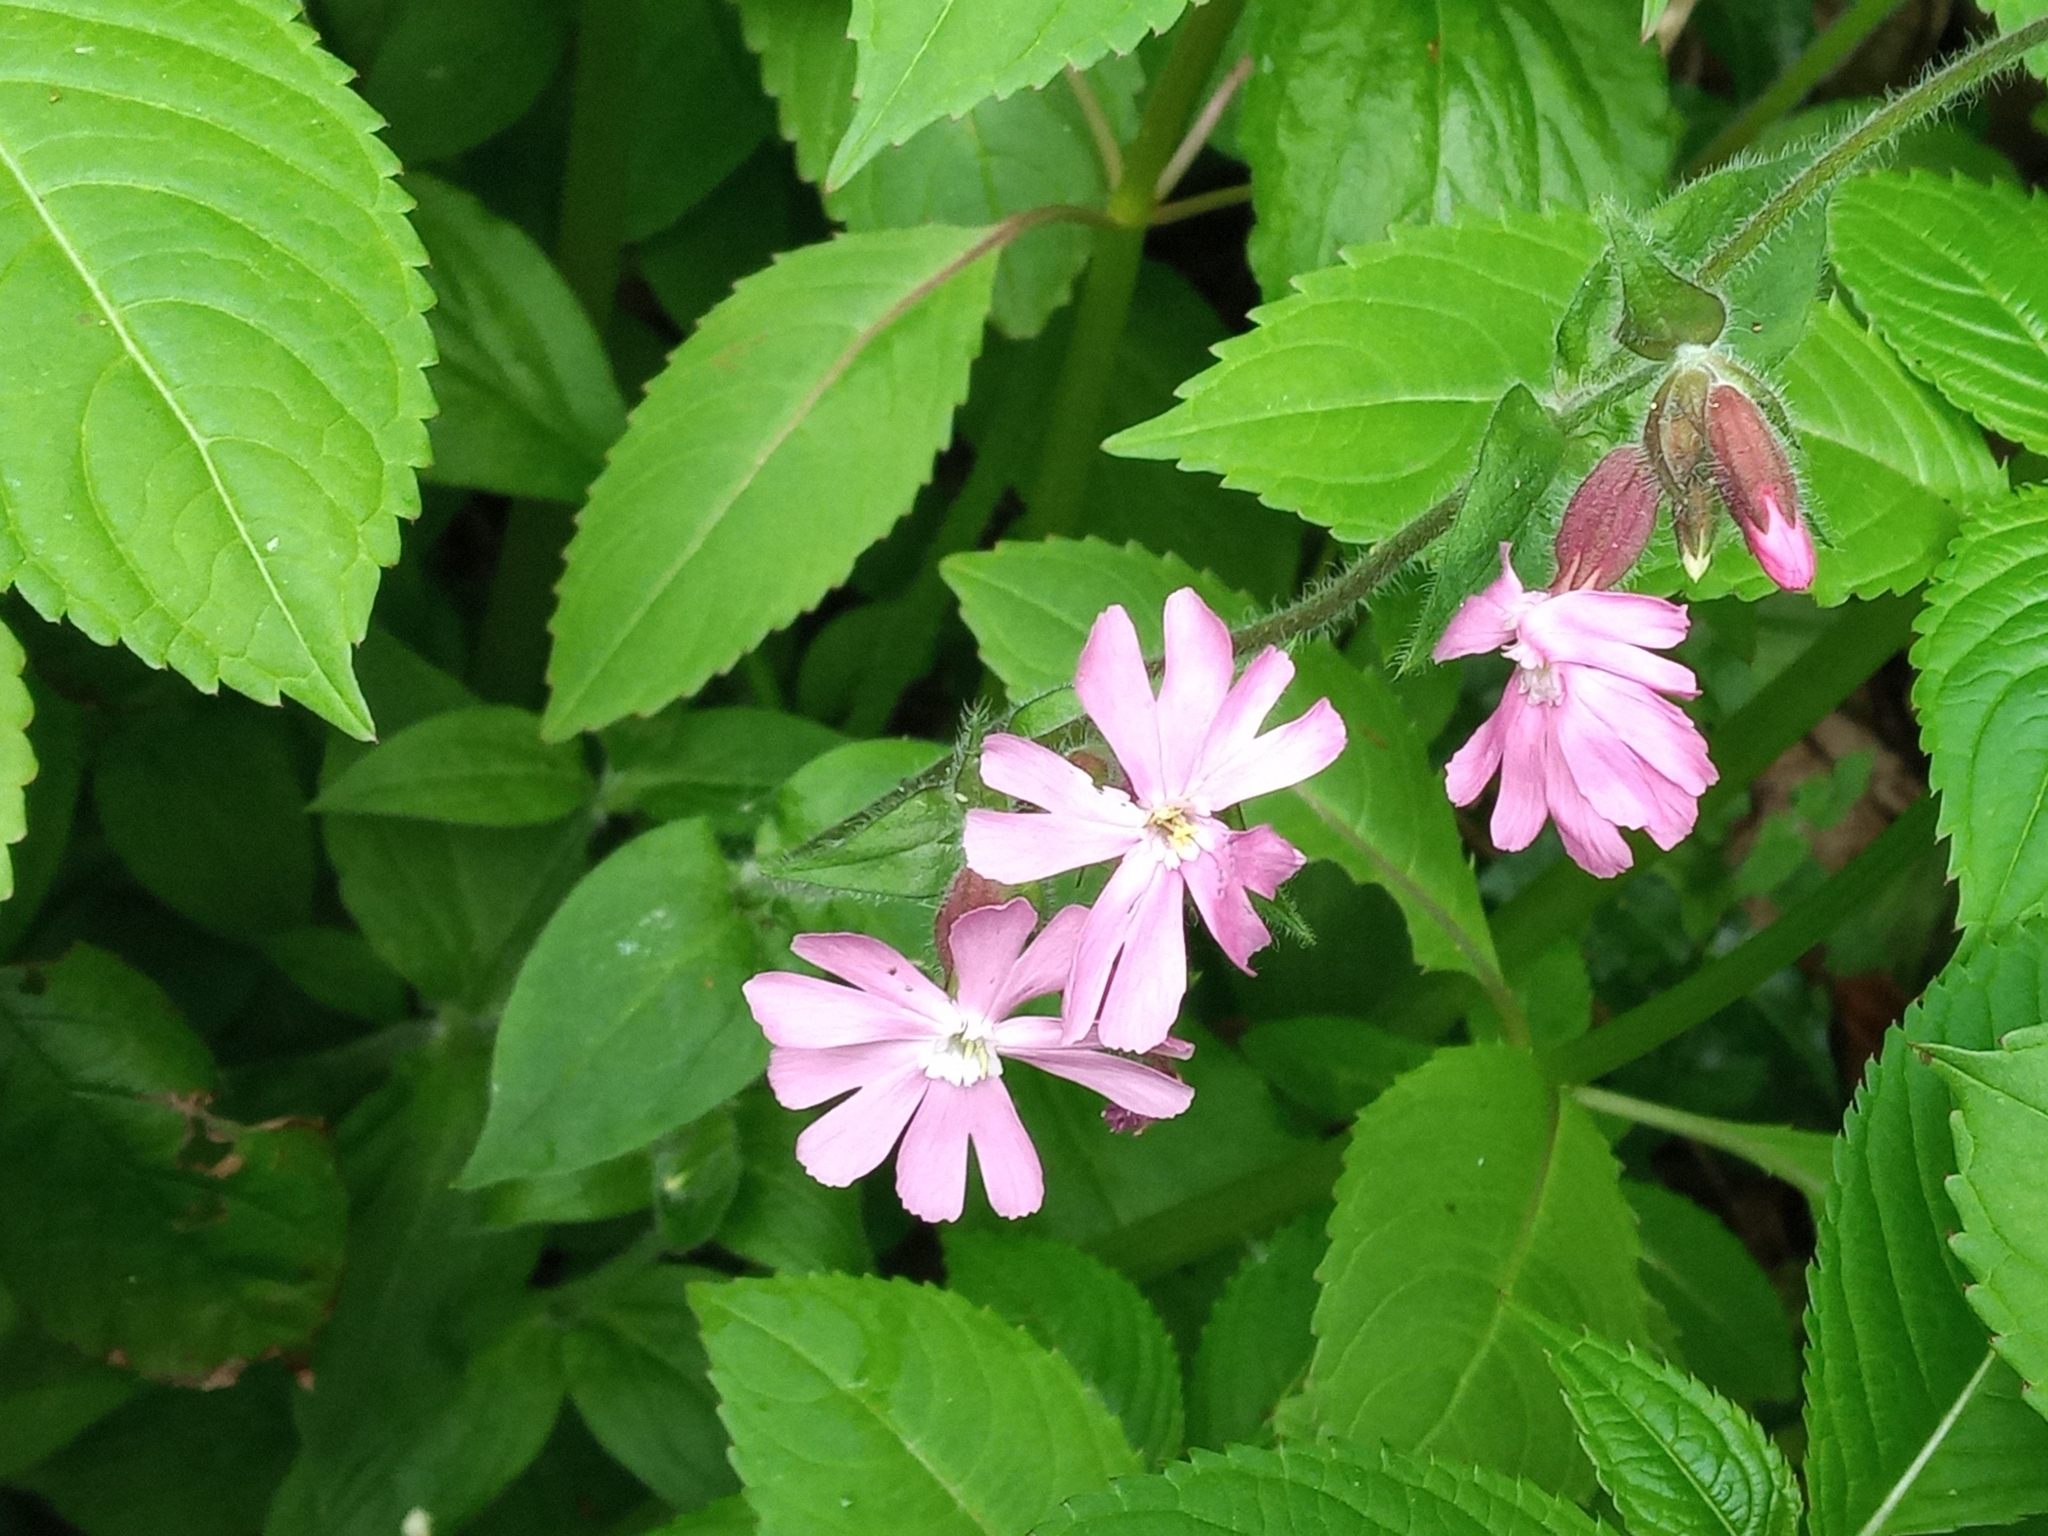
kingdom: Plantae
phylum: Tracheophyta
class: Magnoliopsida
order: Caryophyllales
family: Caryophyllaceae
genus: Silene
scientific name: Silene dioica
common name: Red campion
